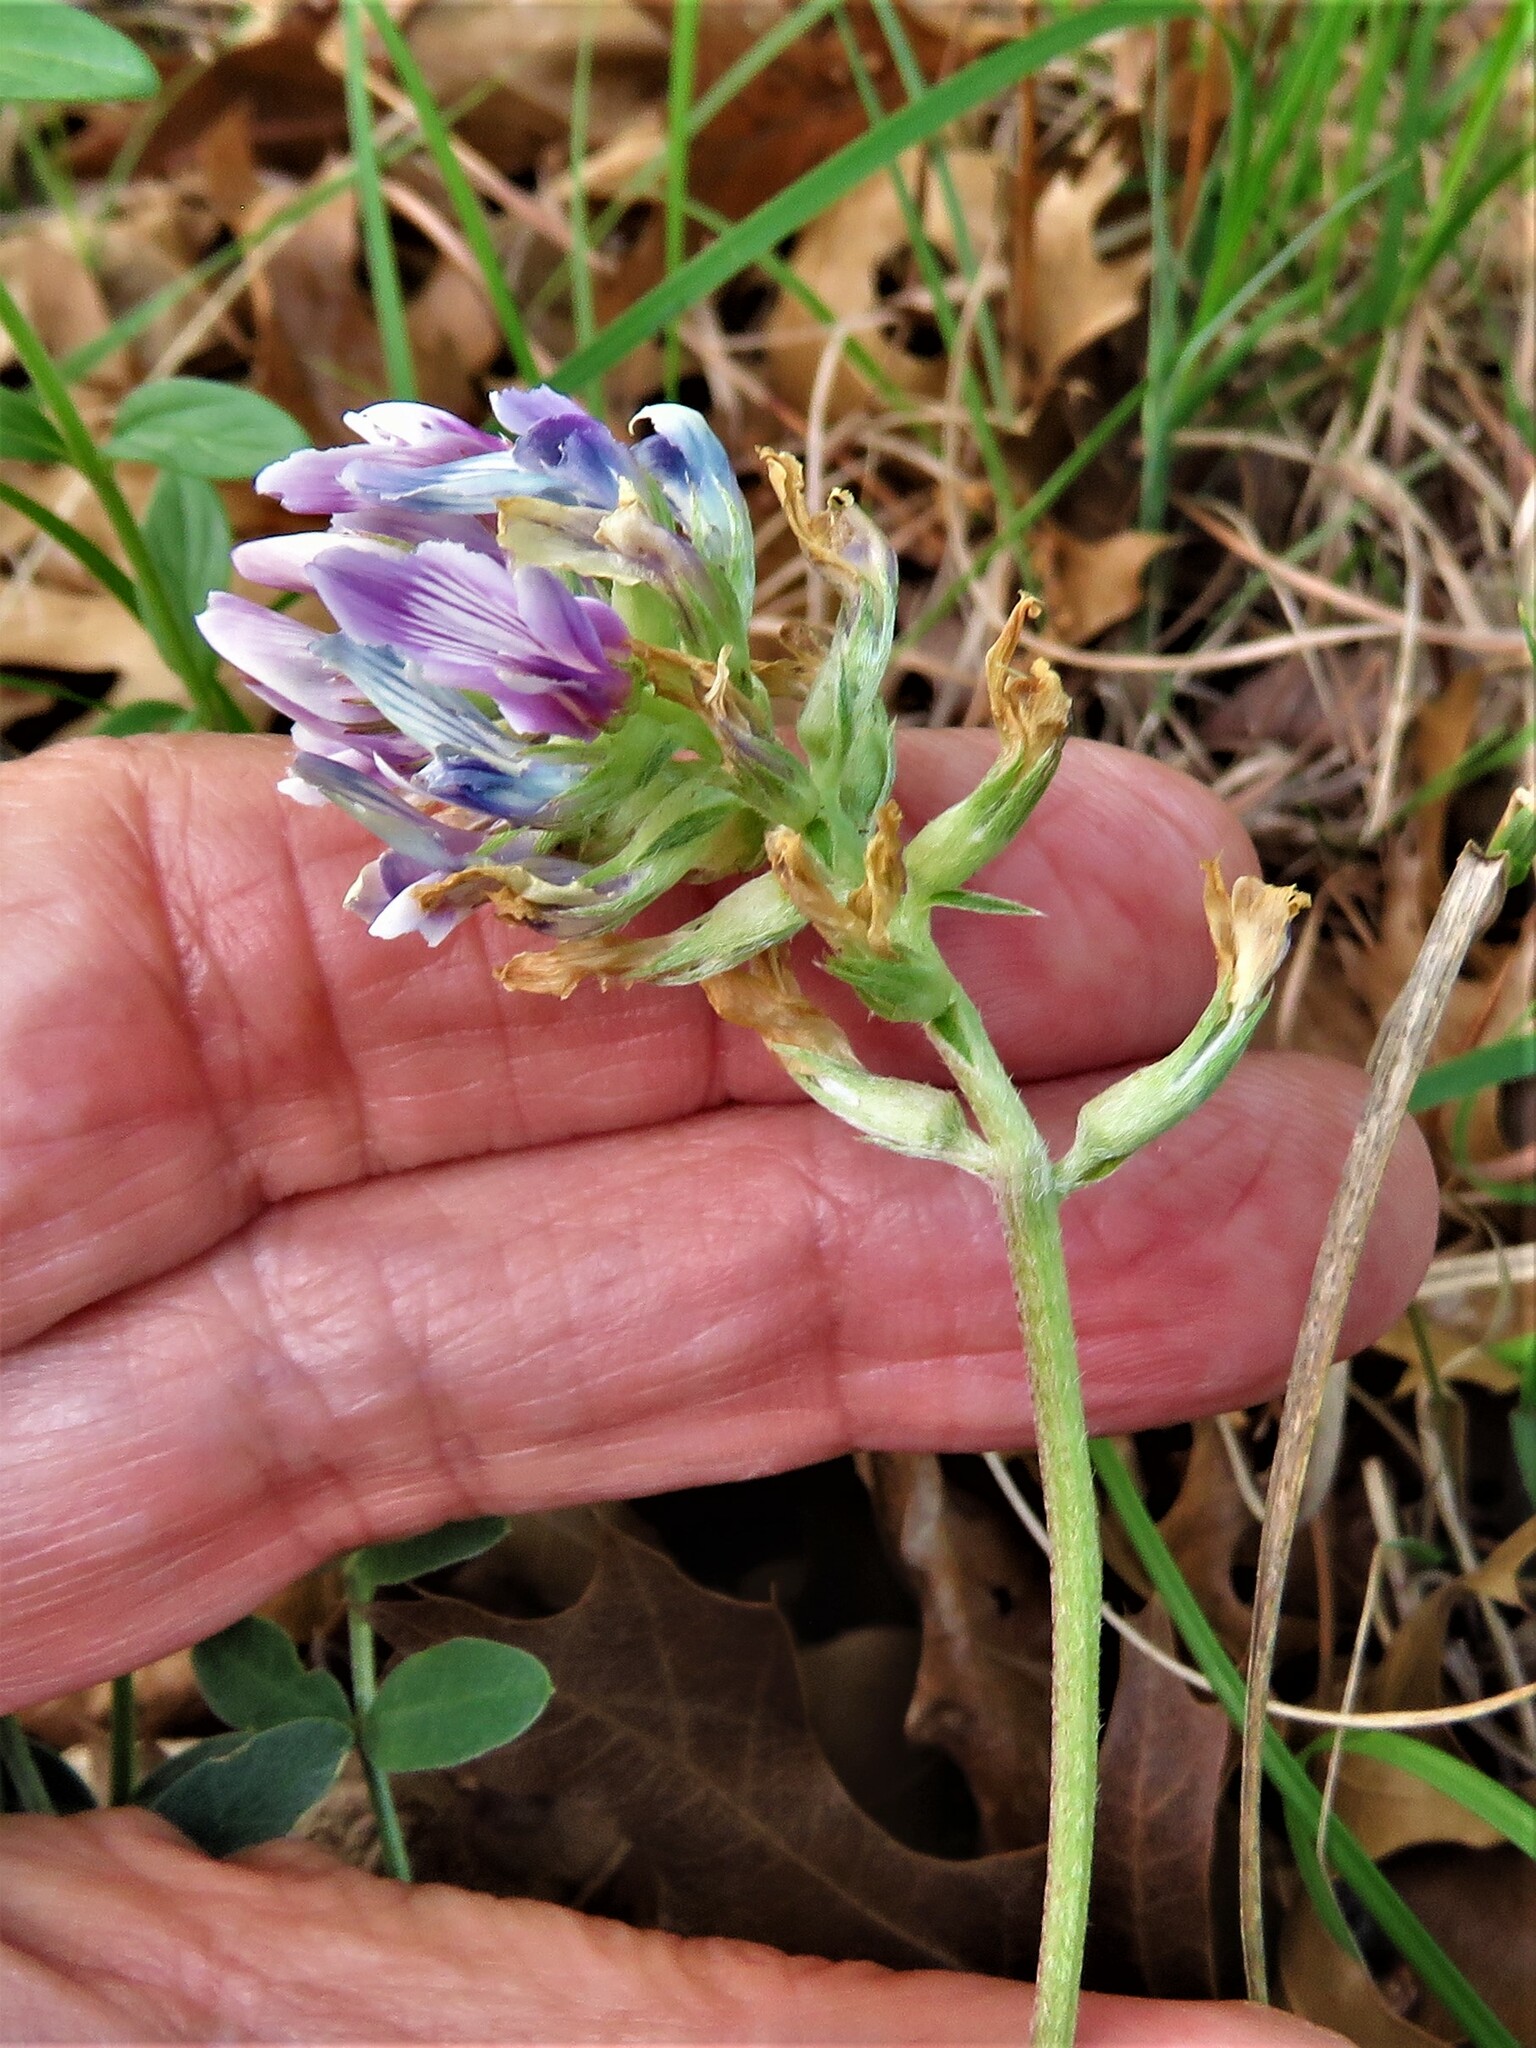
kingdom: Plantae
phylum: Tracheophyta
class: Magnoliopsida
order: Fabales
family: Fabaceae
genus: Astragalus
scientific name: Astragalus crassicarpus
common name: Ground-plum milk-vetch
